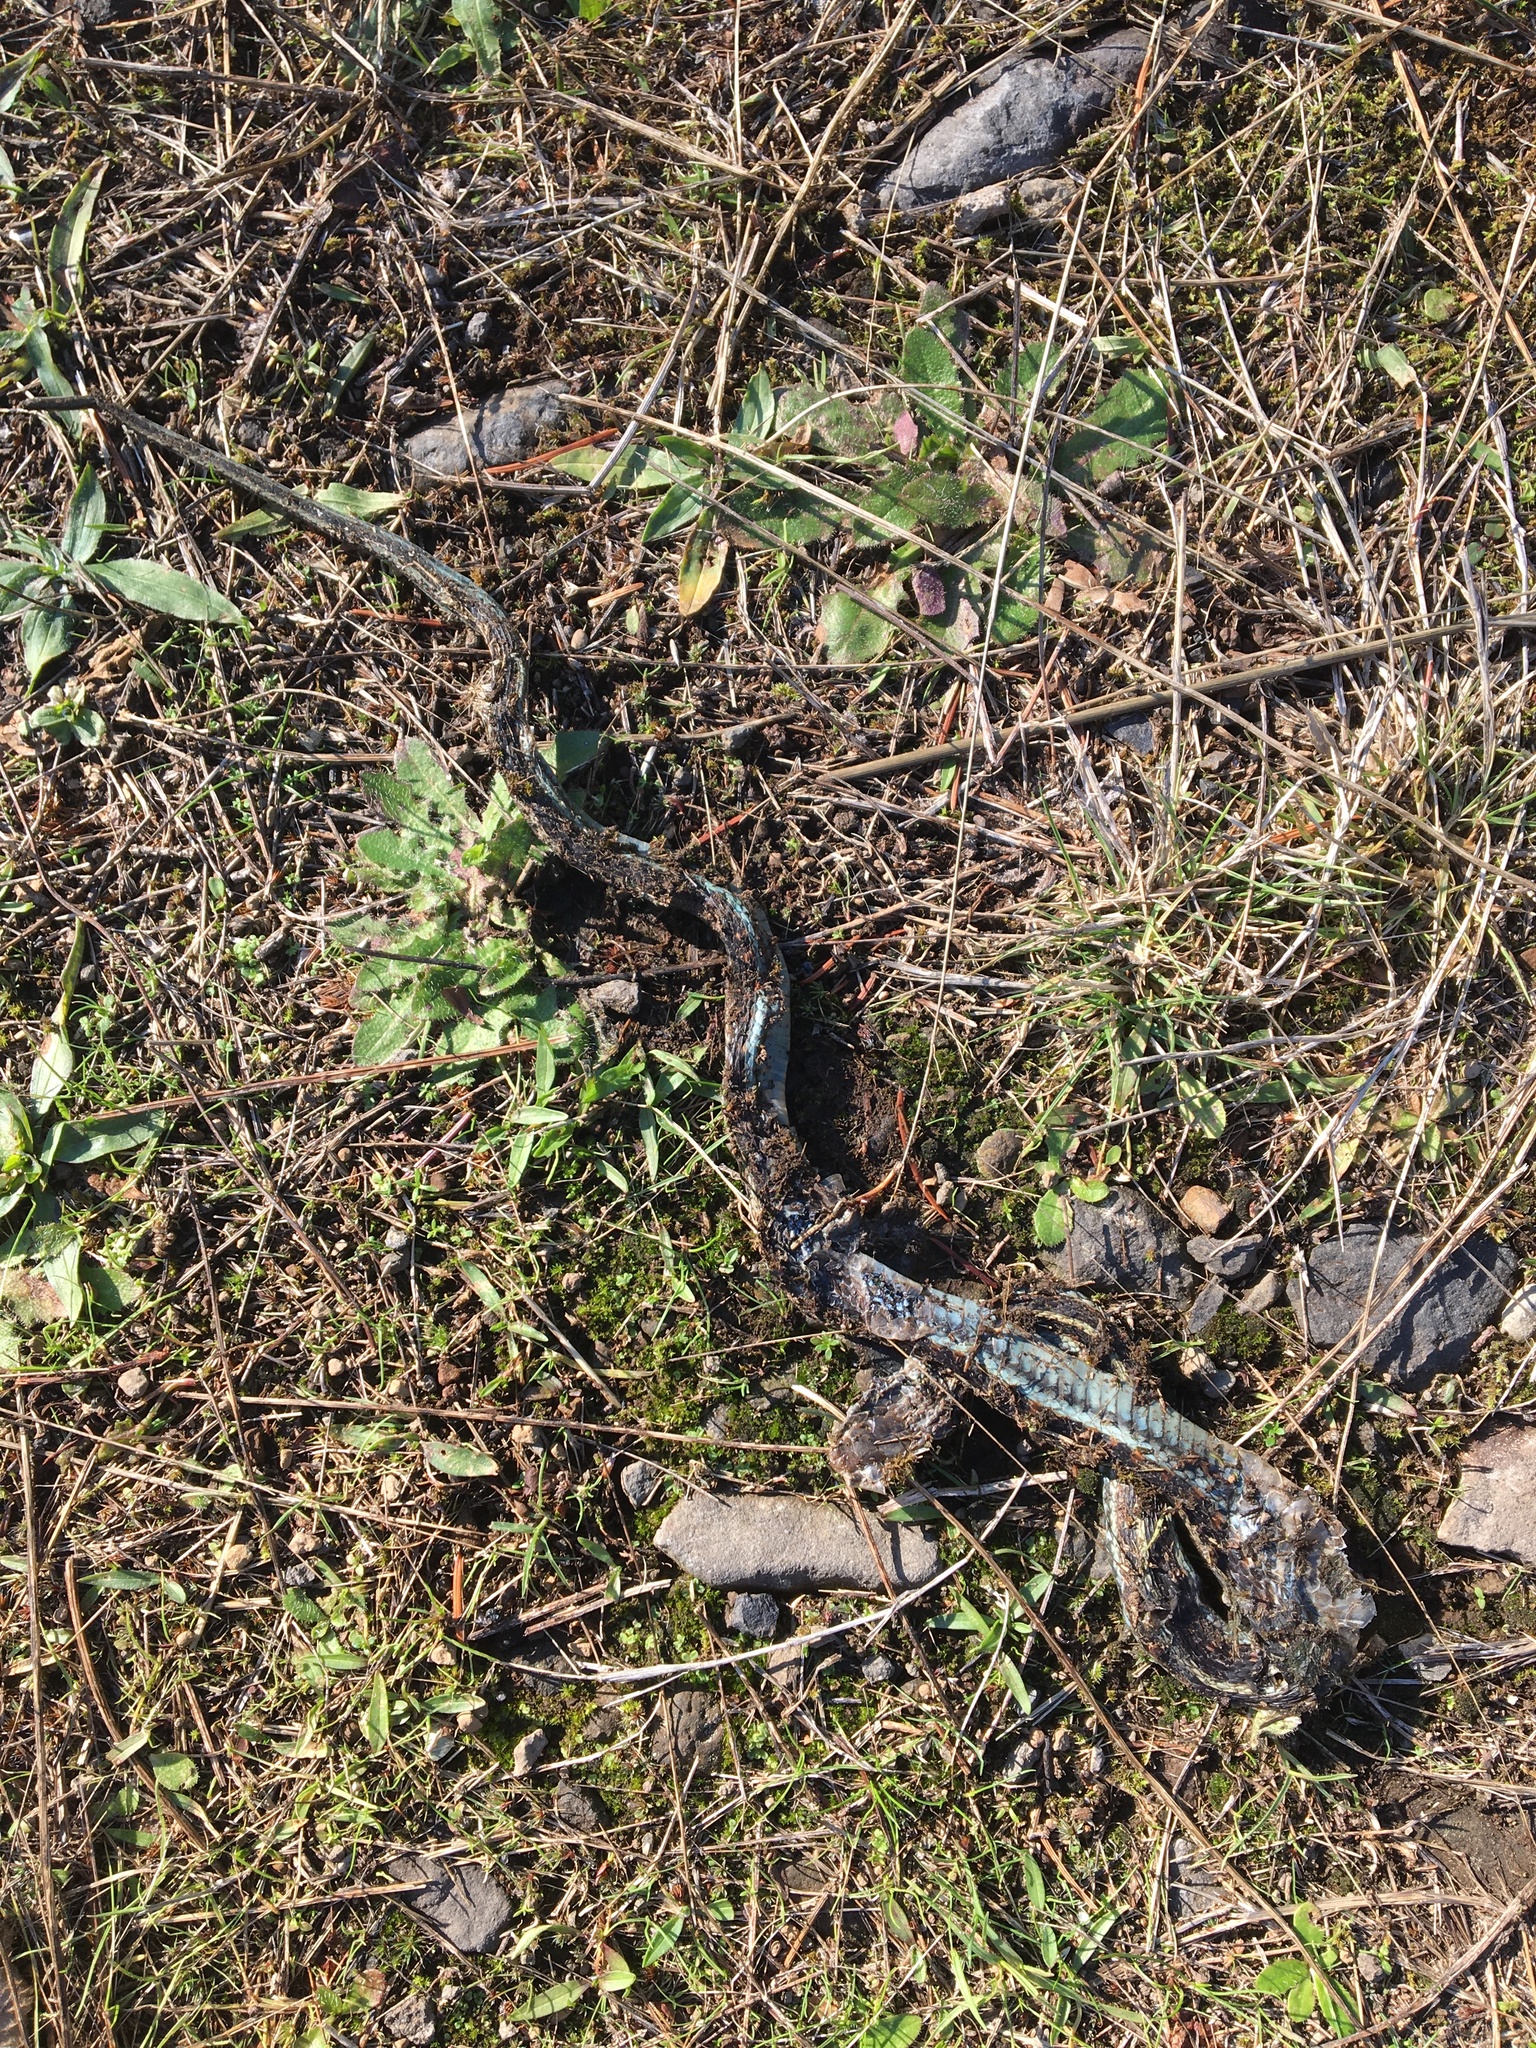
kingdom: Animalia
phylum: Chordata
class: Squamata
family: Colubridae
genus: Thamnophis
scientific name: Thamnophis sirtalis
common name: Common garter snake
